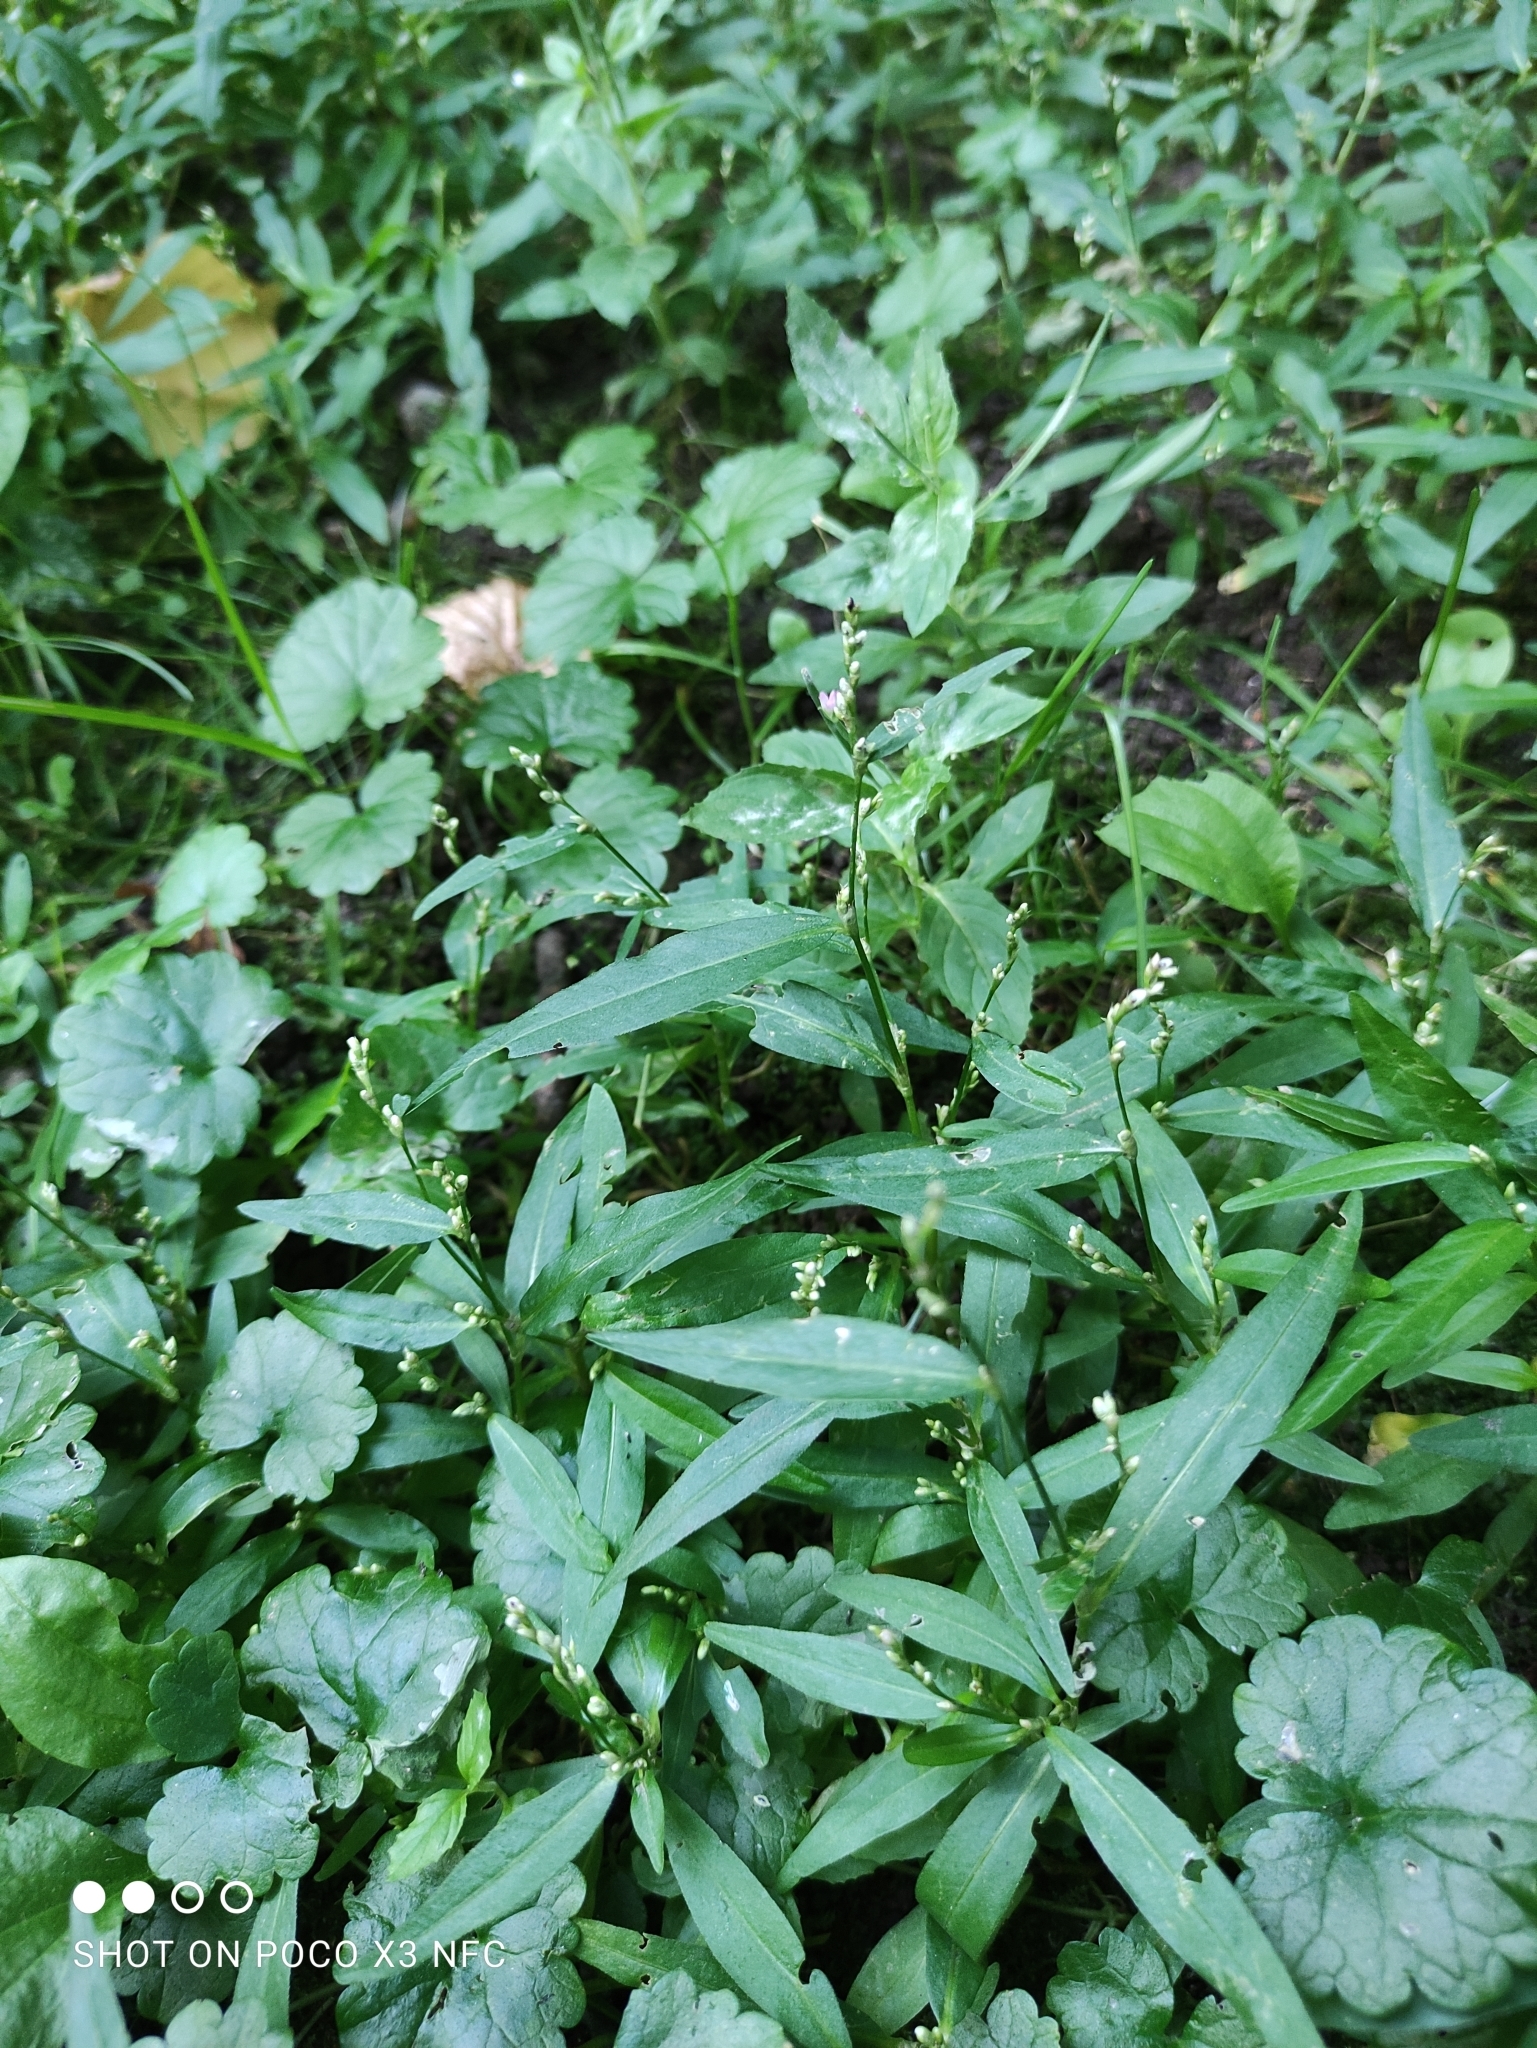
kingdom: Plantae
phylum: Tracheophyta
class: Magnoliopsida
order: Caryophyllales
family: Polygonaceae
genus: Persicaria
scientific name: Persicaria hydropiper
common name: Water-pepper
